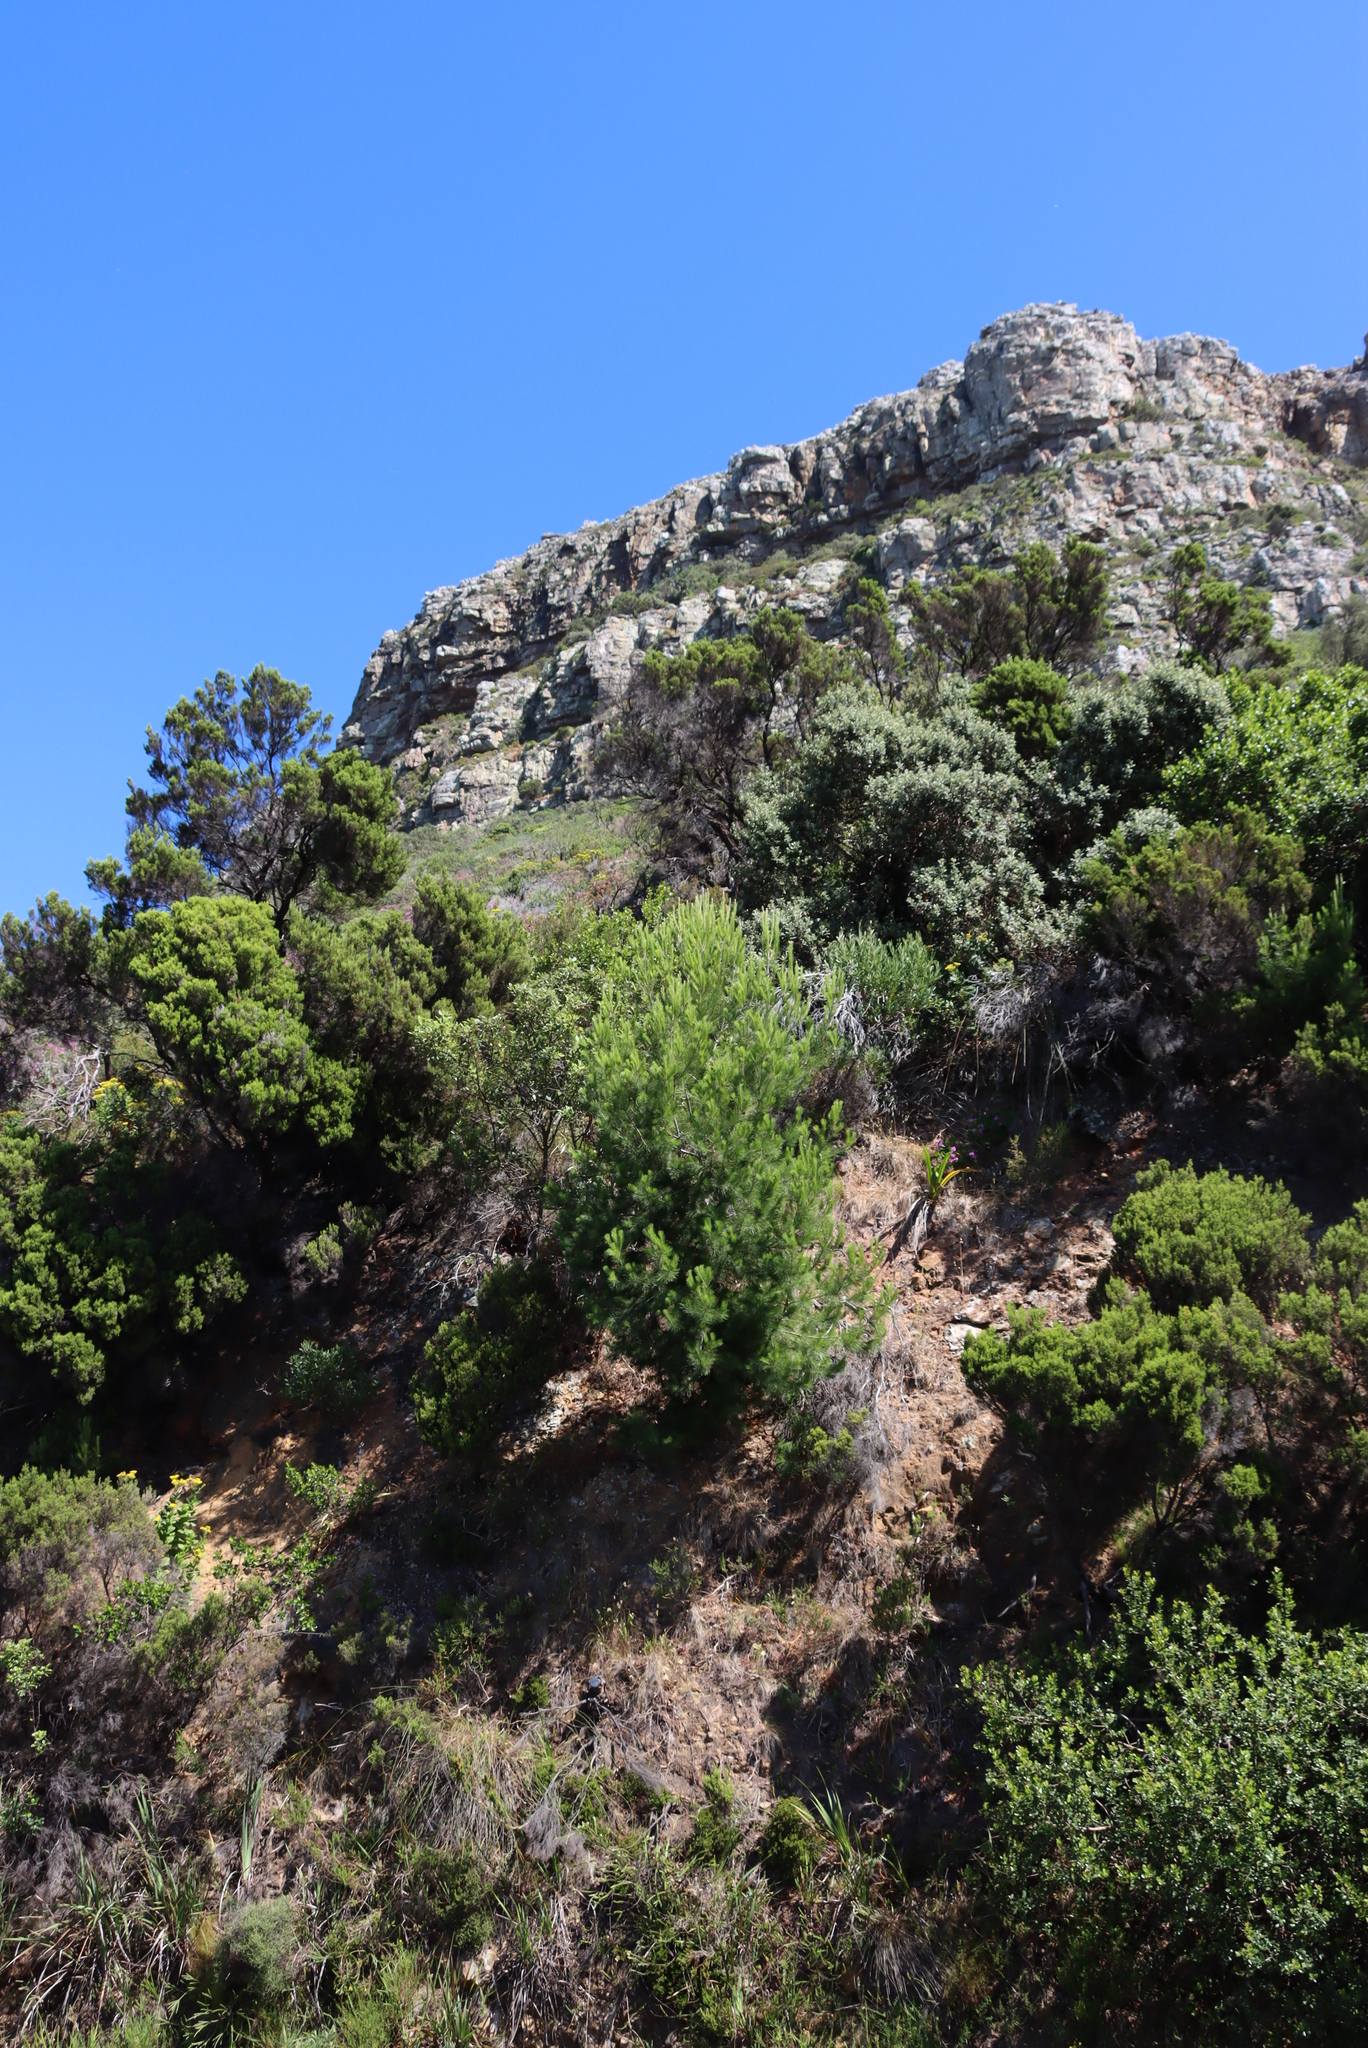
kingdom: Plantae
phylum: Tracheophyta
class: Magnoliopsida
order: Ericales
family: Ericaceae
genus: Erica
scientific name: Erica tristis
